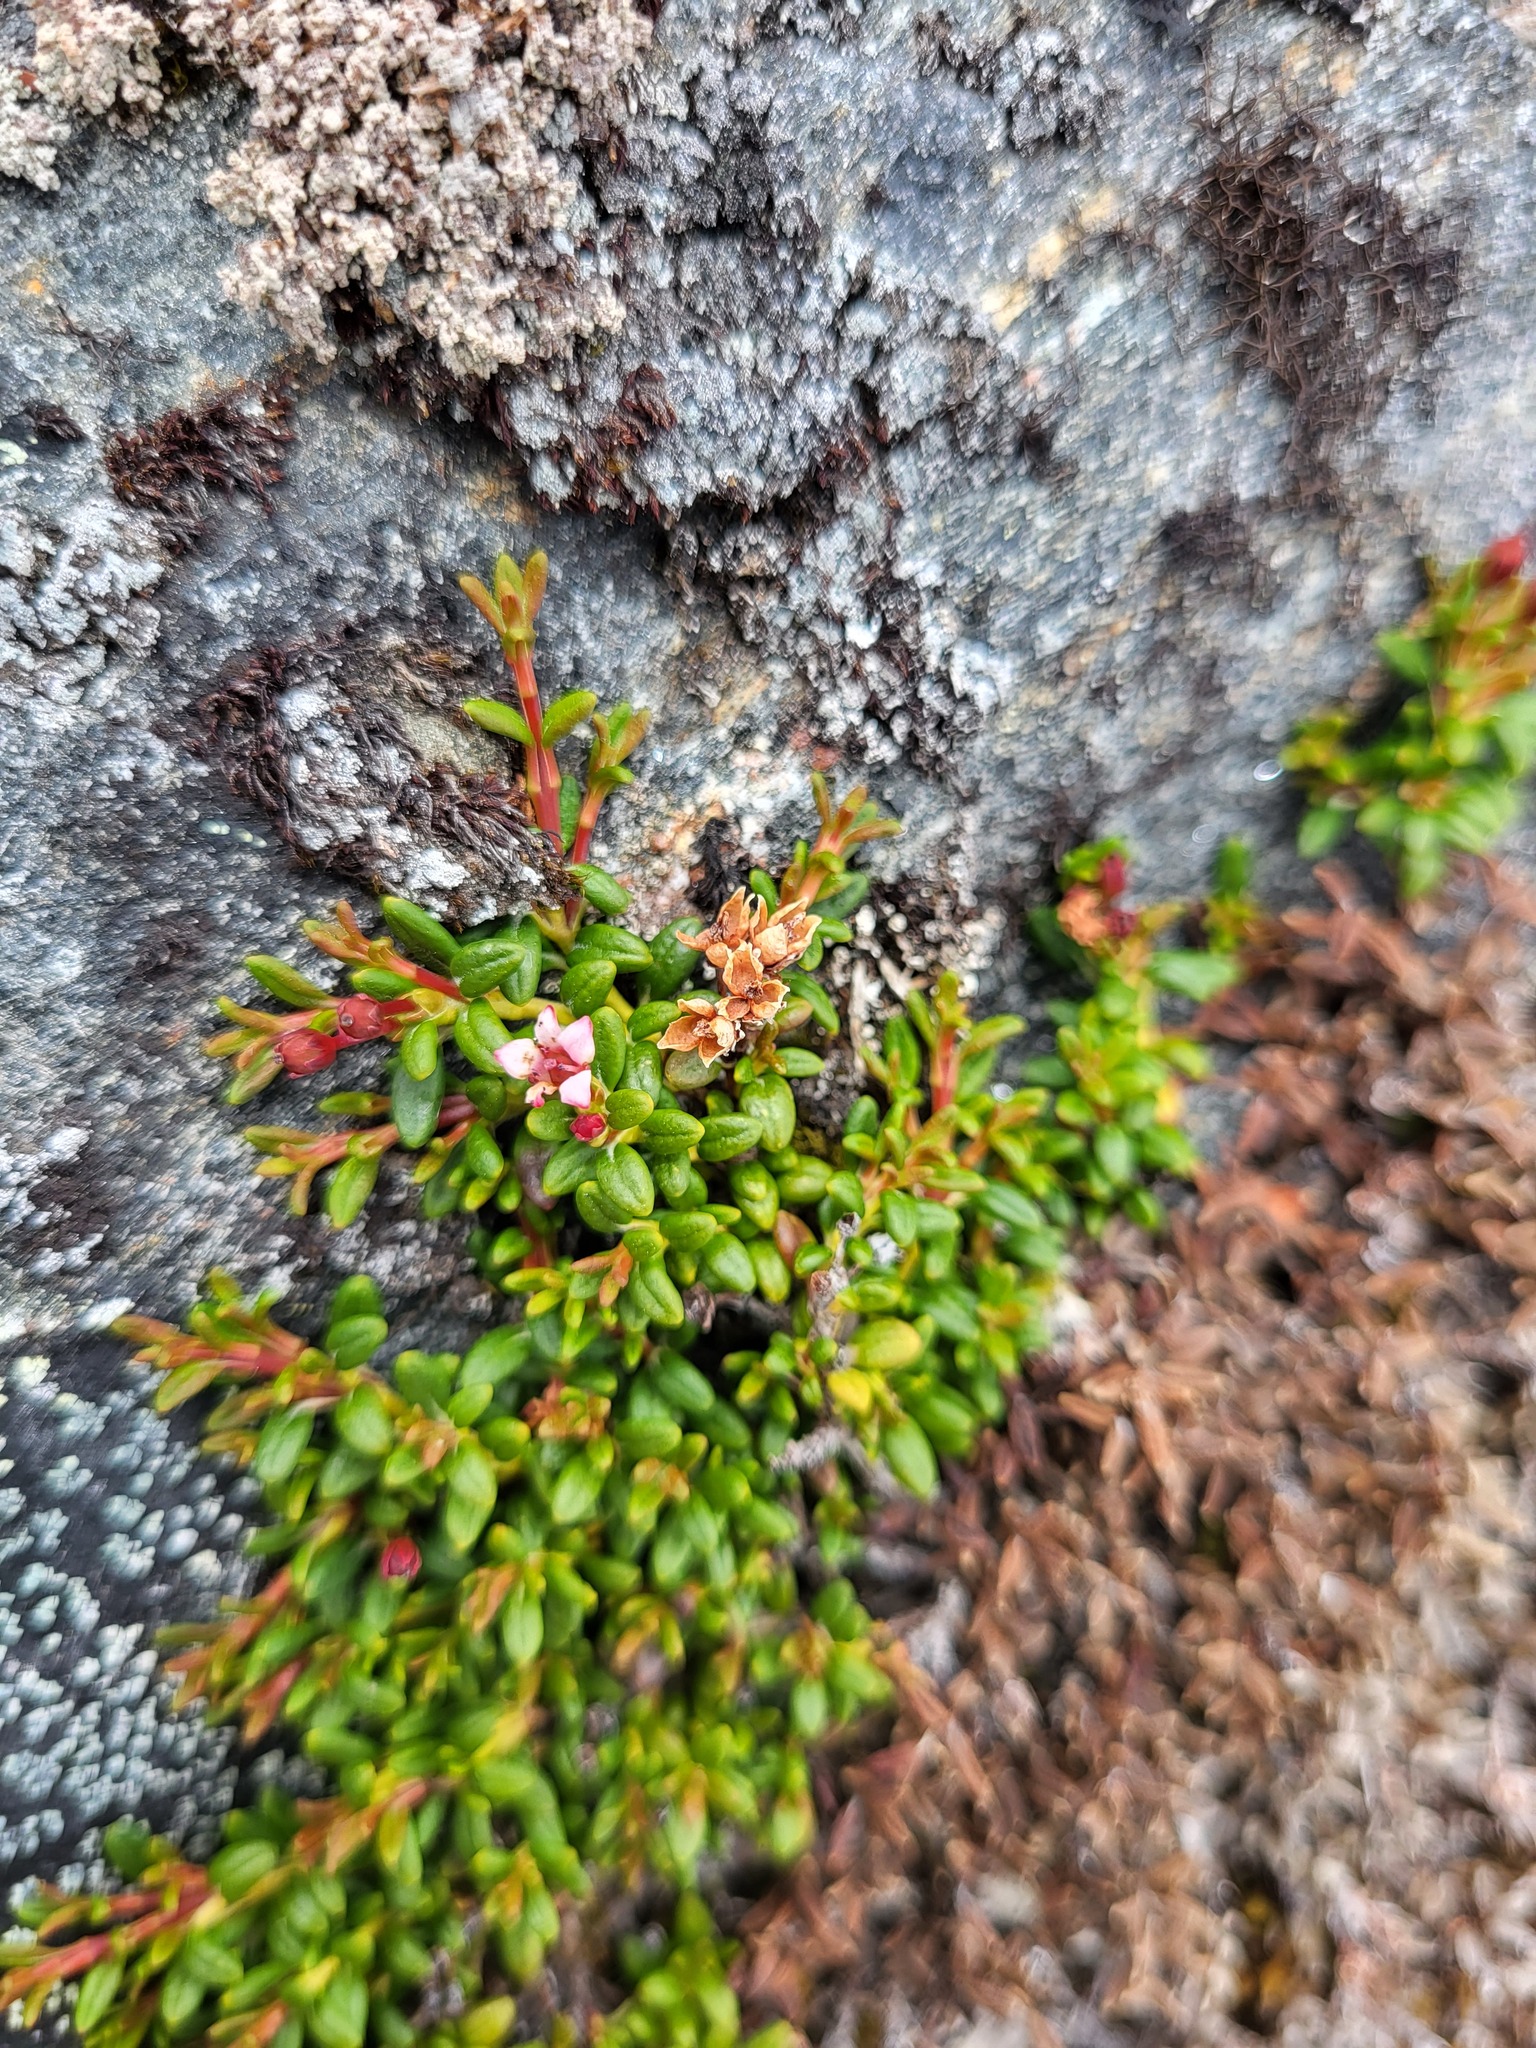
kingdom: Plantae
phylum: Tracheophyta
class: Magnoliopsida
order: Ericales
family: Ericaceae
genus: Kalmia
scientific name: Kalmia procumbens
